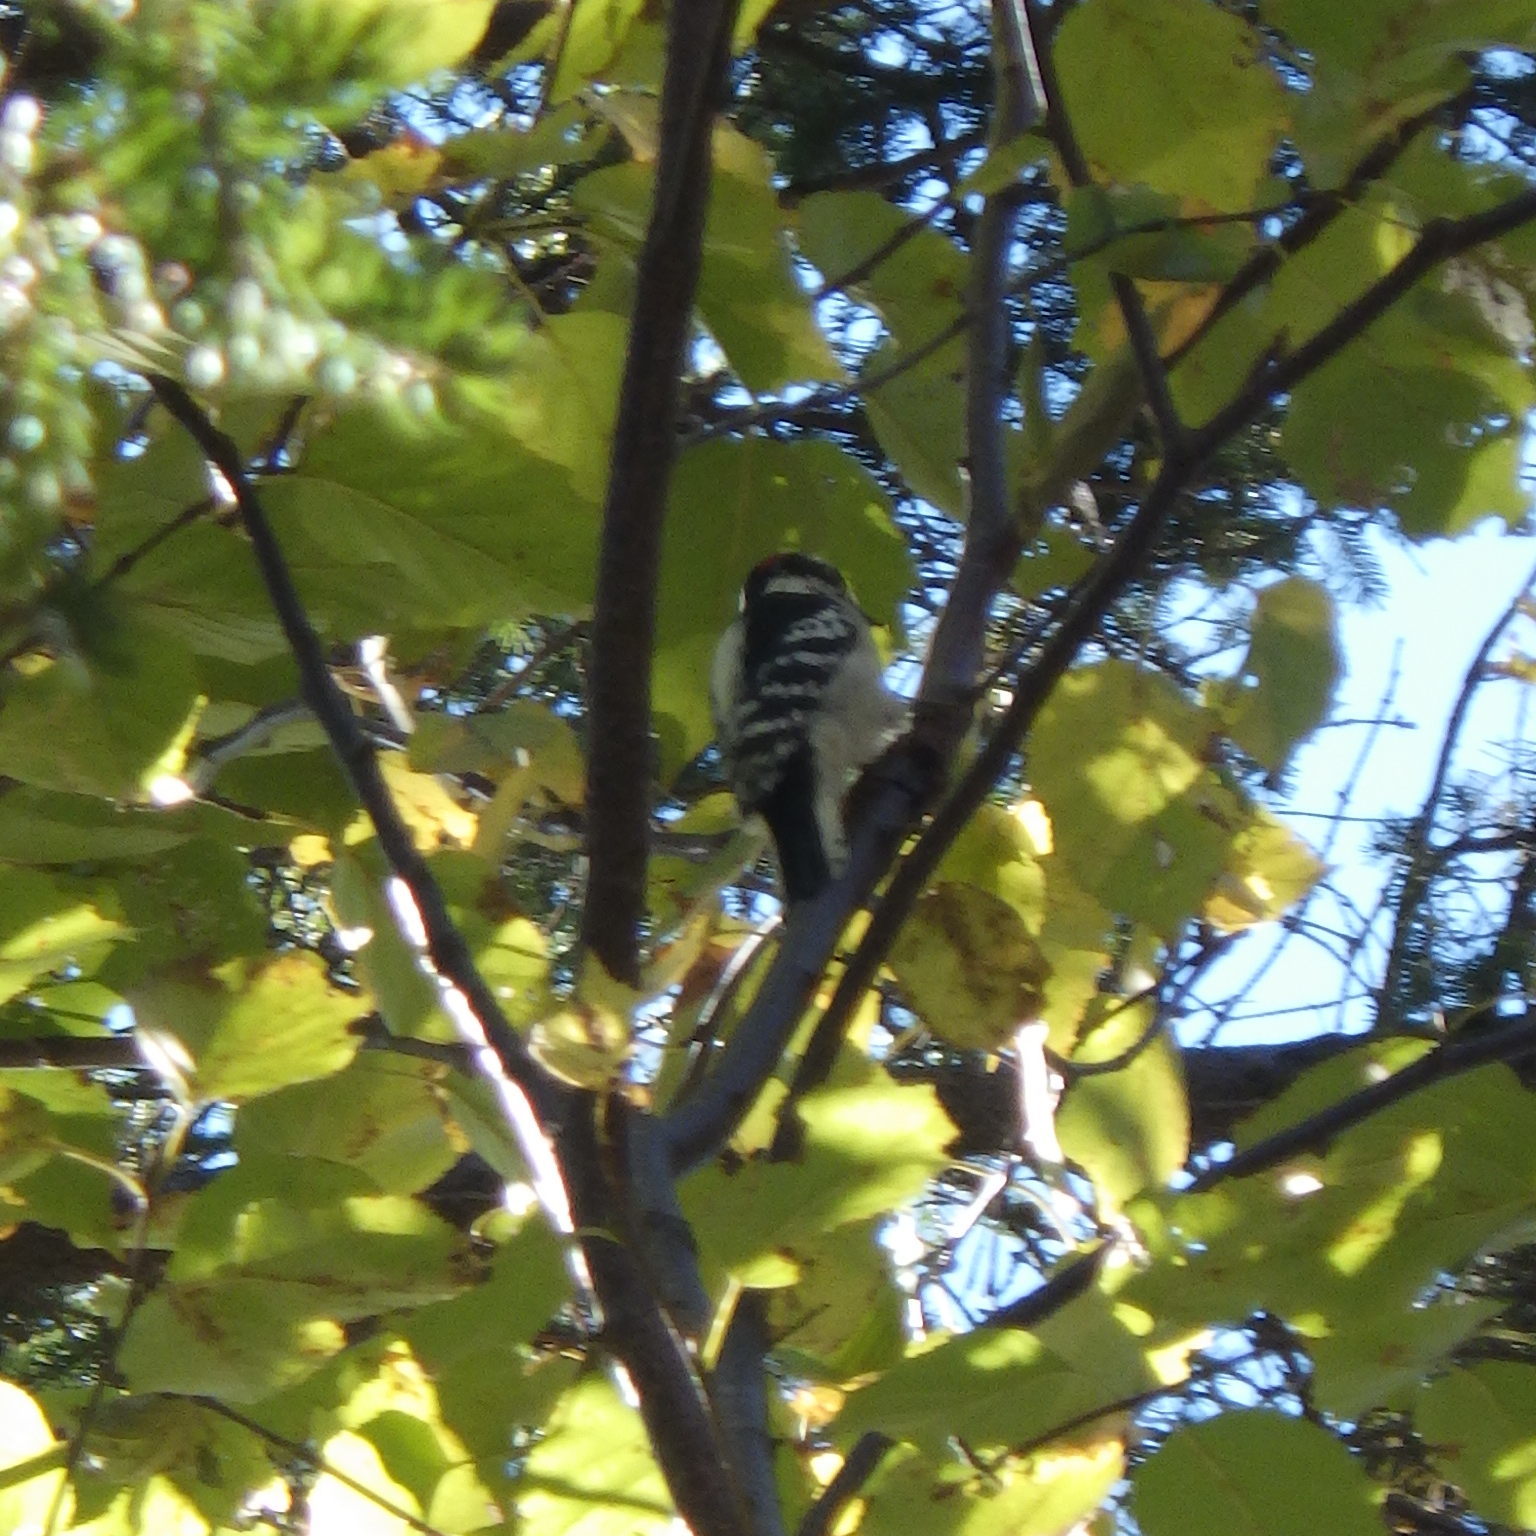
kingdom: Animalia
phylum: Chordata
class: Aves
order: Piciformes
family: Picidae
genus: Dryobates
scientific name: Dryobates pubescens
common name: Downy woodpecker
